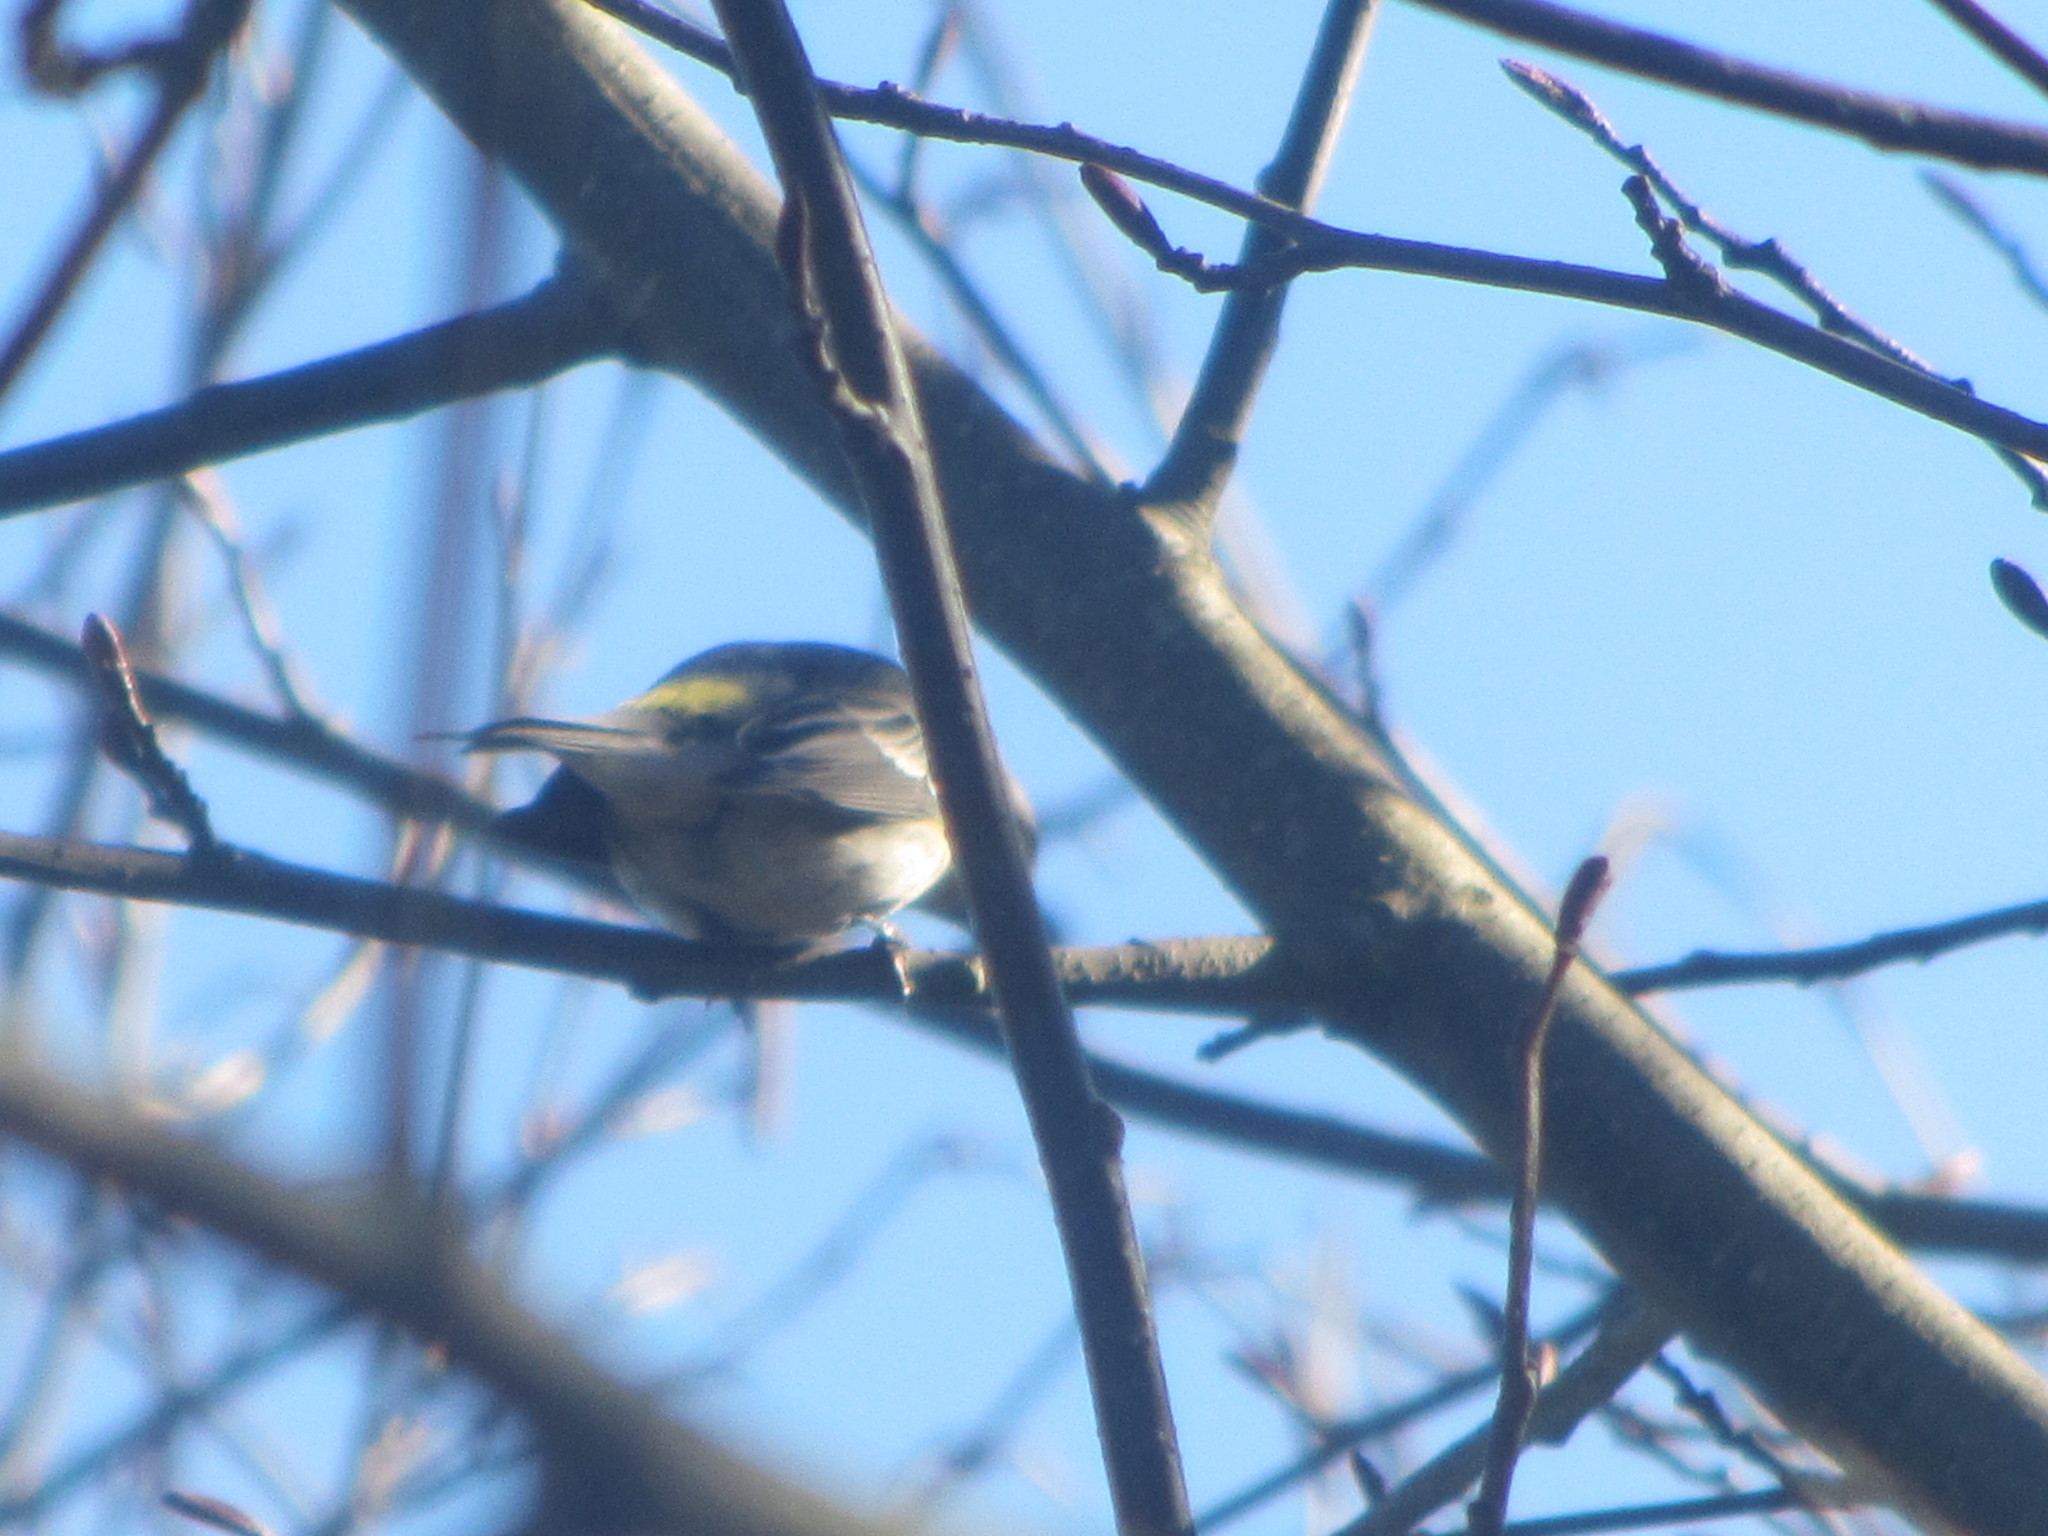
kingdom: Animalia
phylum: Chordata
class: Aves
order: Passeriformes
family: Parulidae
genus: Setophaga
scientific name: Setophaga coronata
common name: Myrtle warbler
